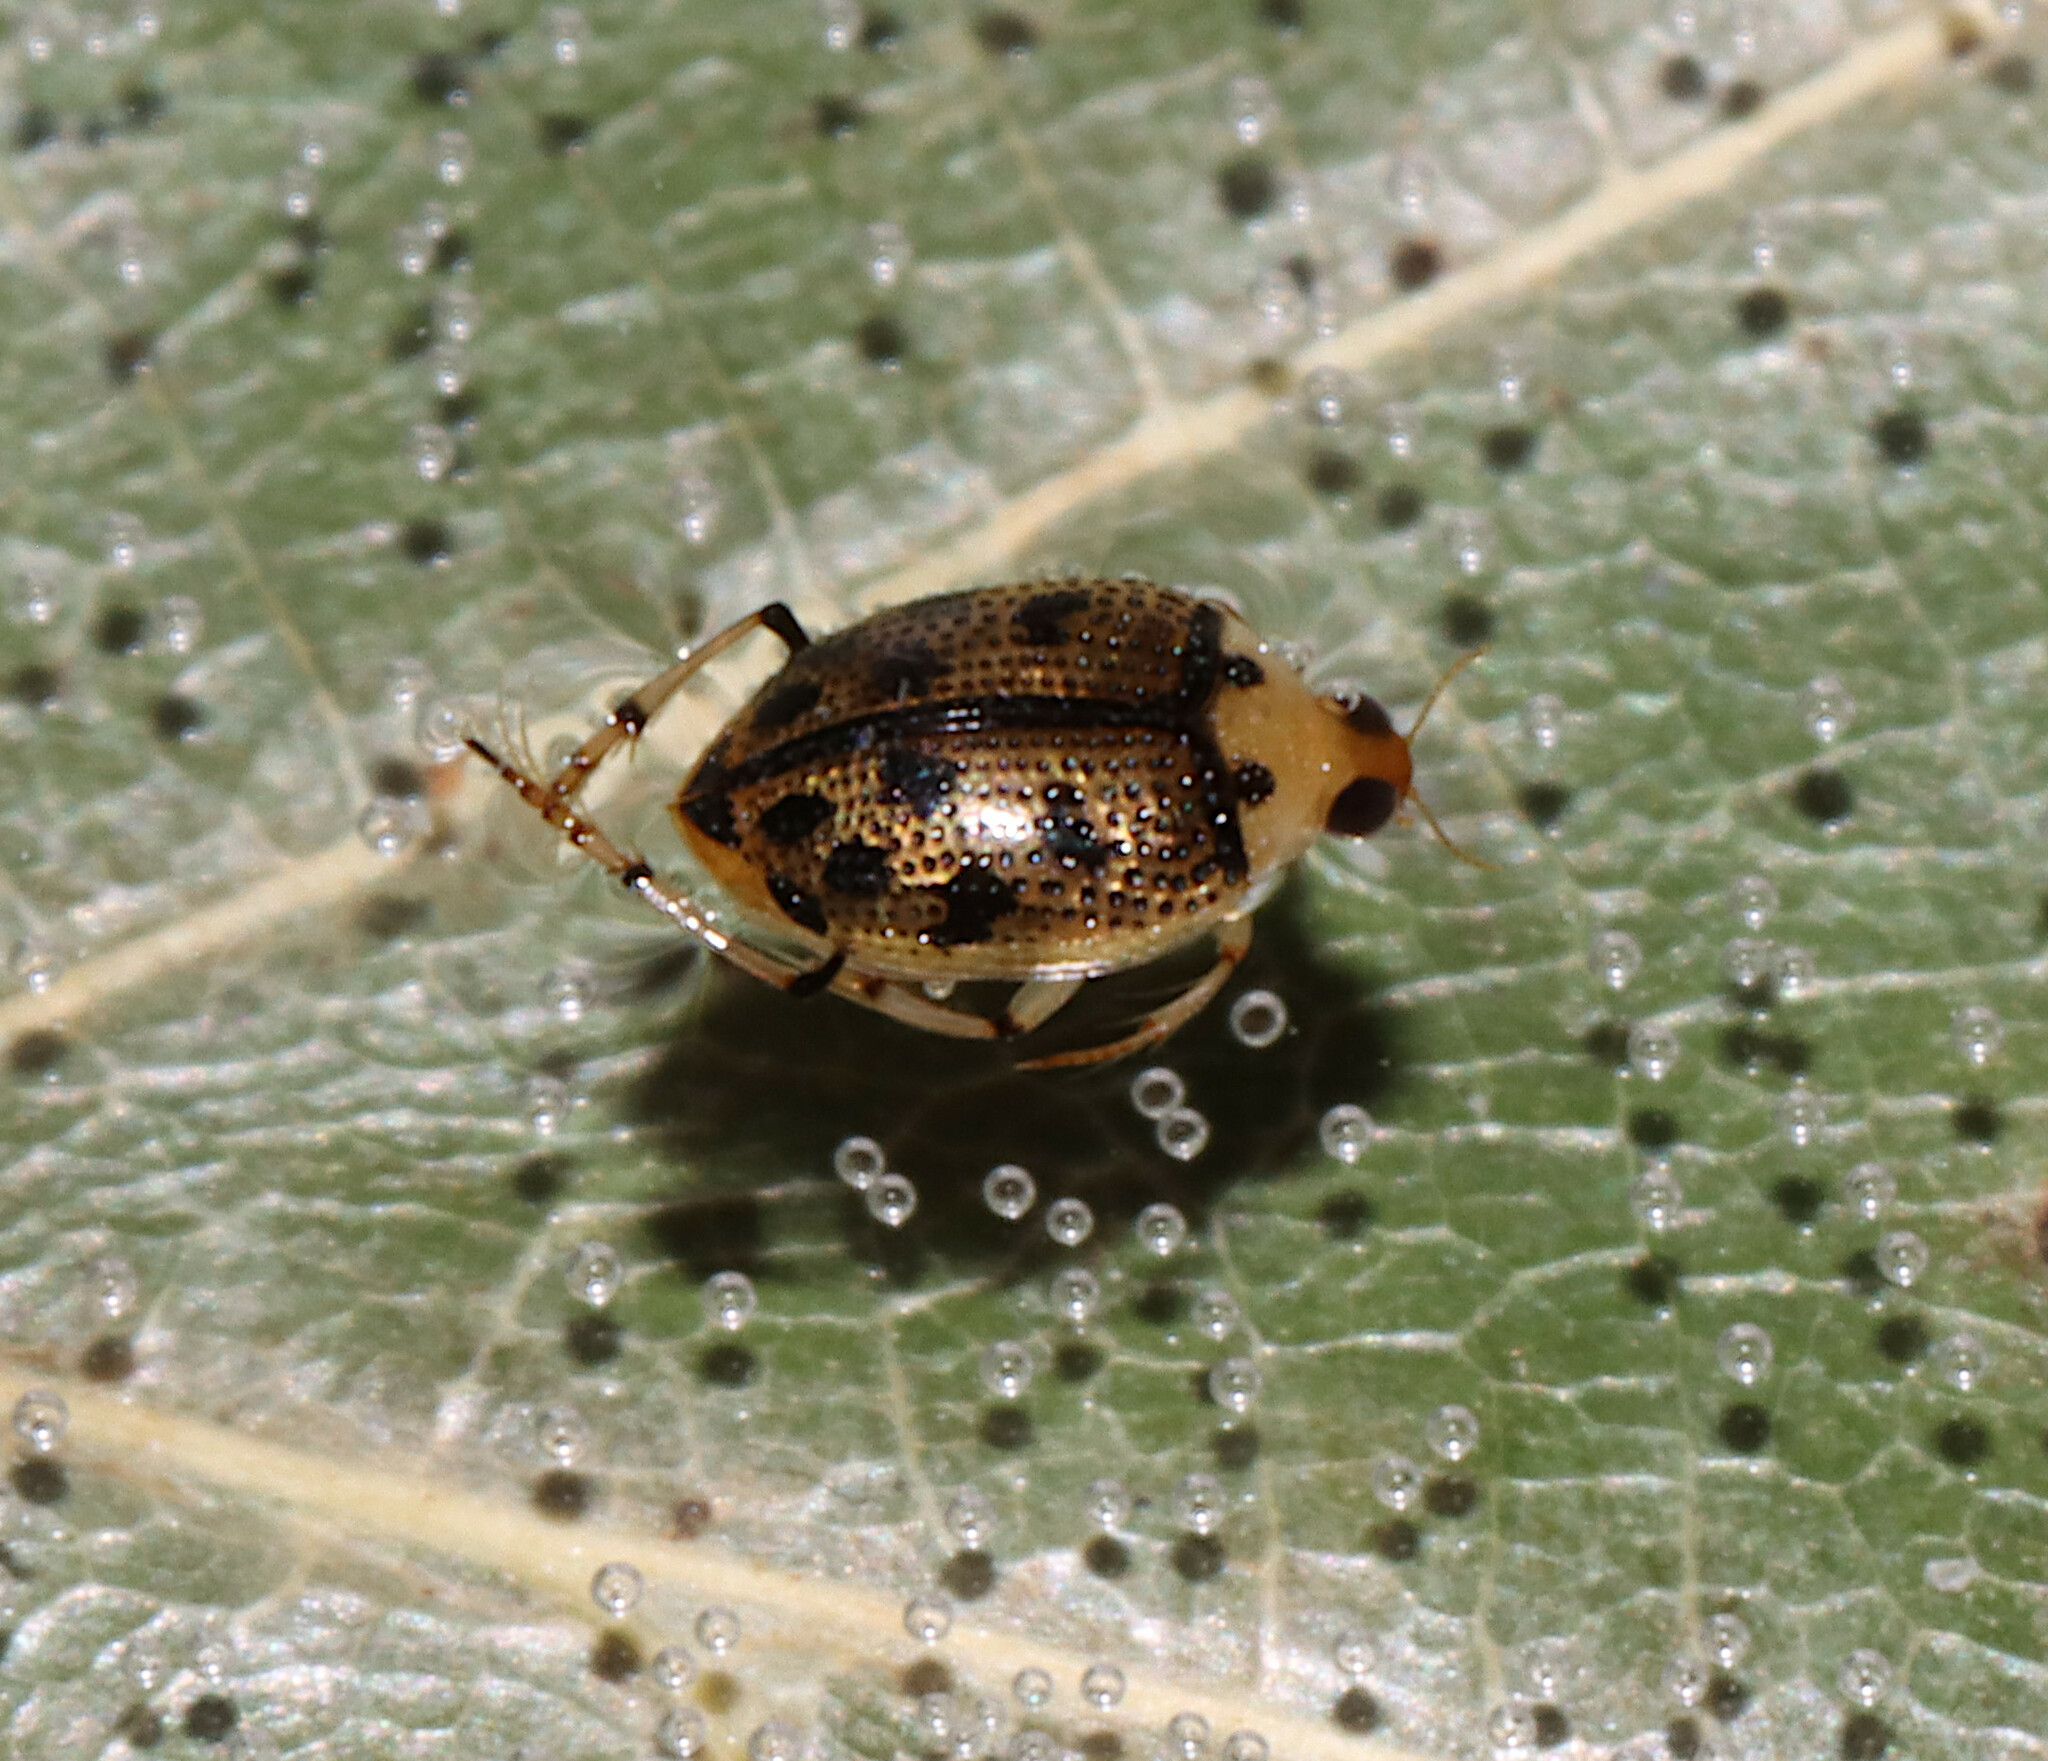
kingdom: Animalia
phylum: Arthropoda
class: Insecta
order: Coleoptera
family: Haliplidae
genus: Peltodytes
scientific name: Peltodytes sexmaculatus
